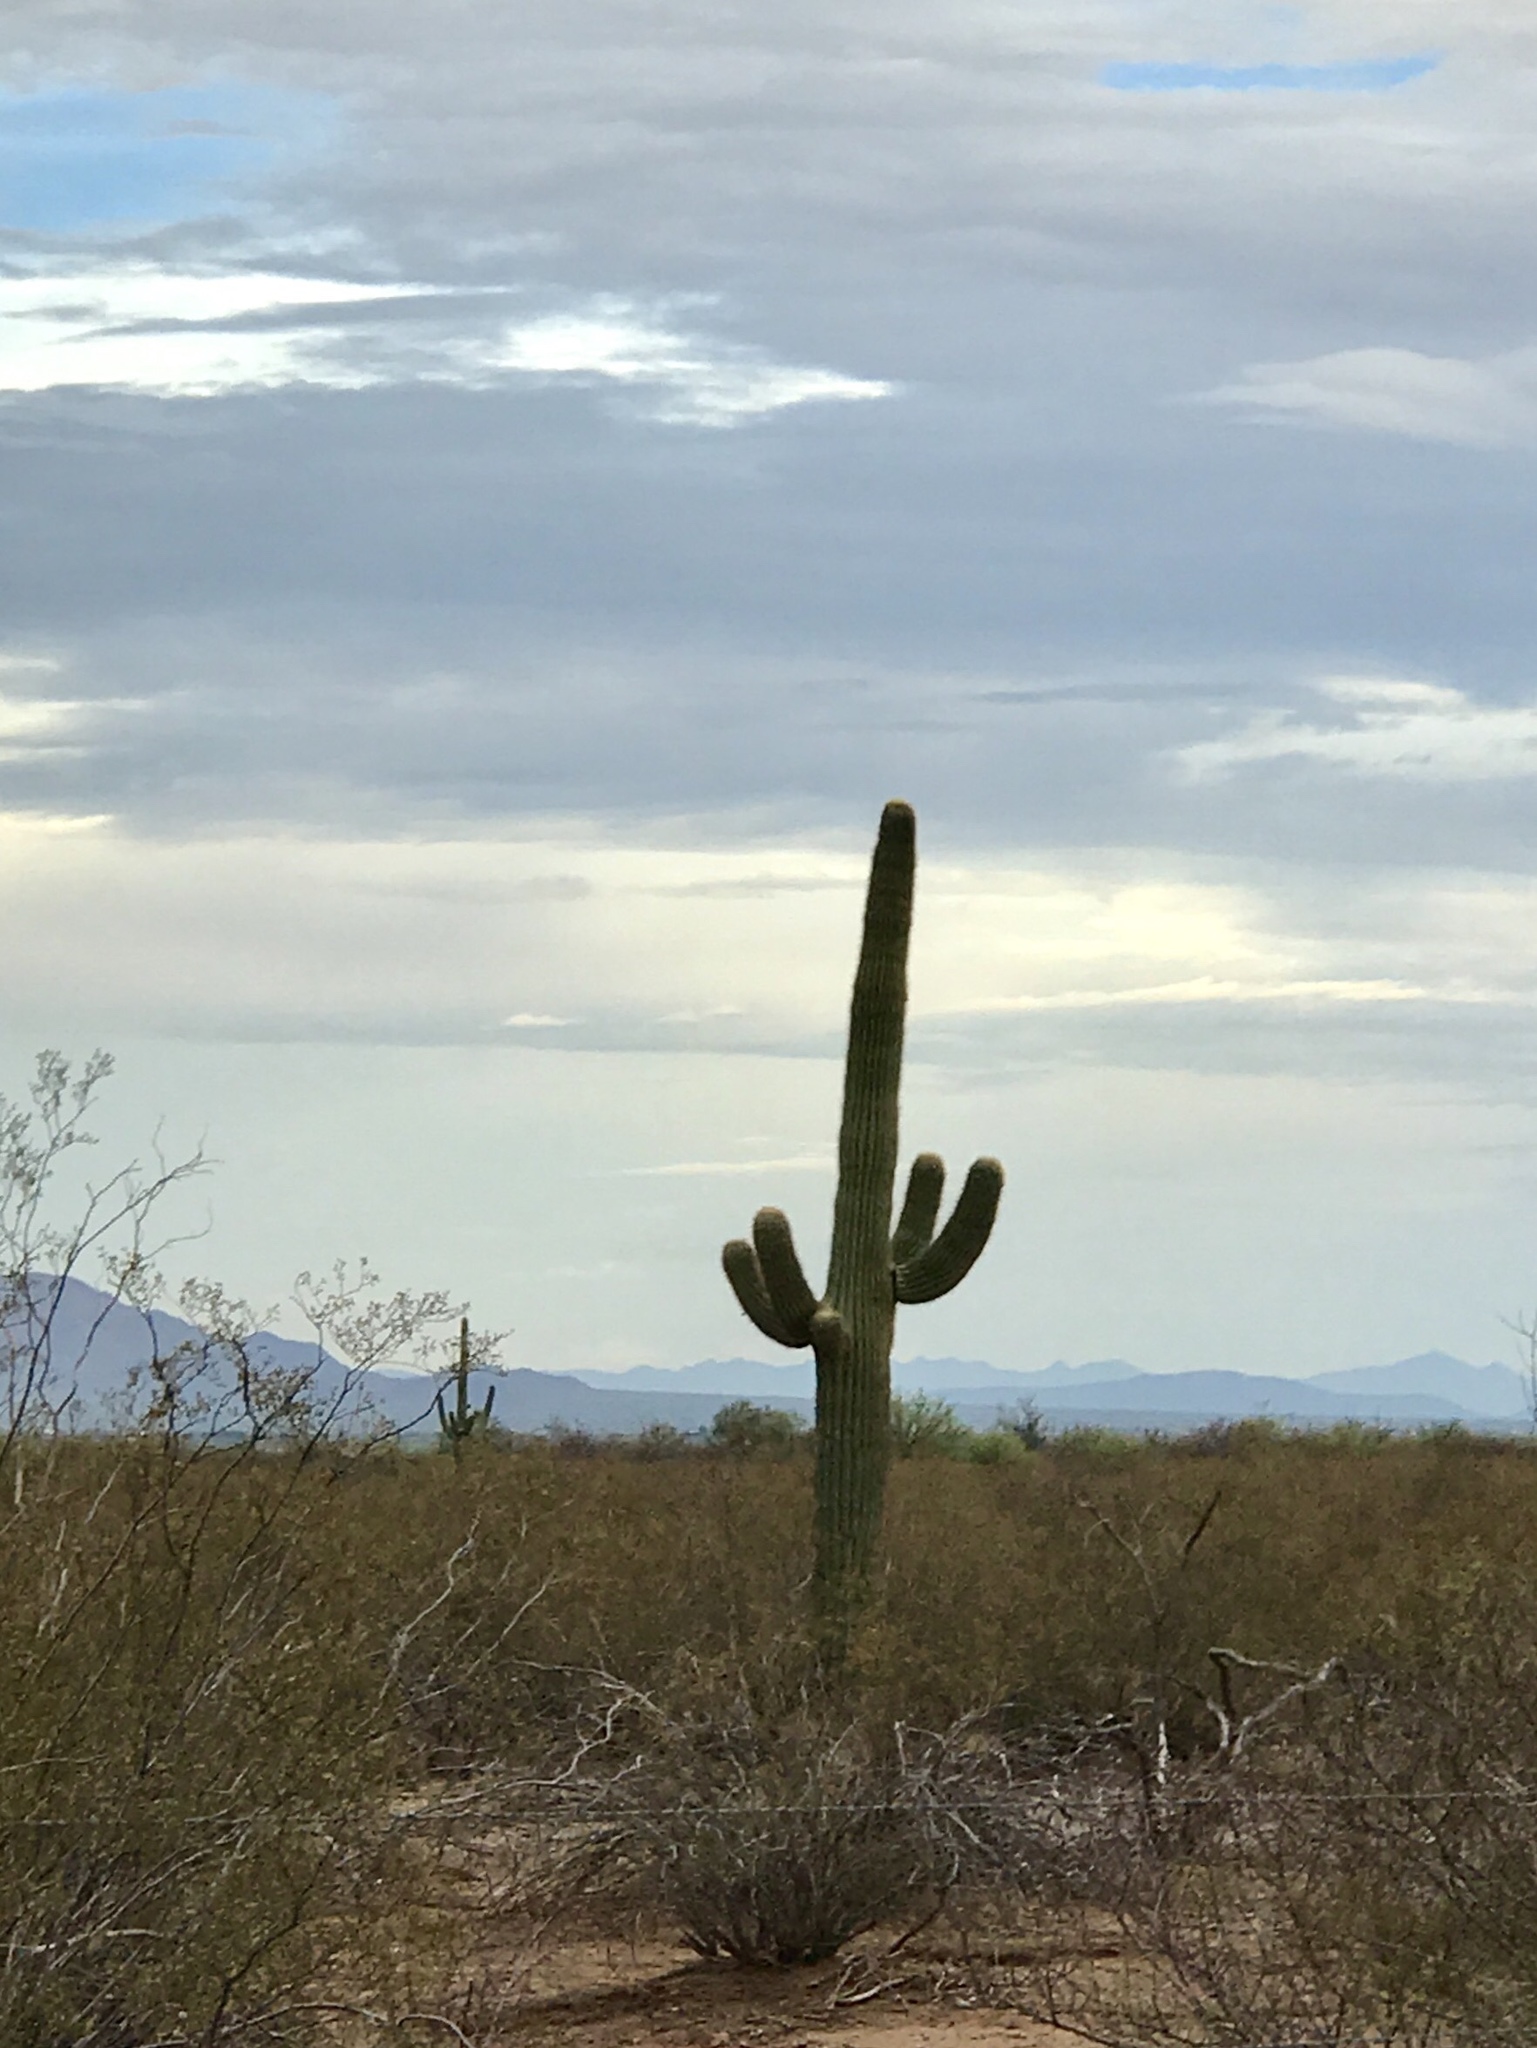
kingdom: Plantae
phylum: Tracheophyta
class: Magnoliopsida
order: Caryophyllales
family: Cactaceae
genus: Carnegiea
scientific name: Carnegiea gigantea
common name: Saguaro
